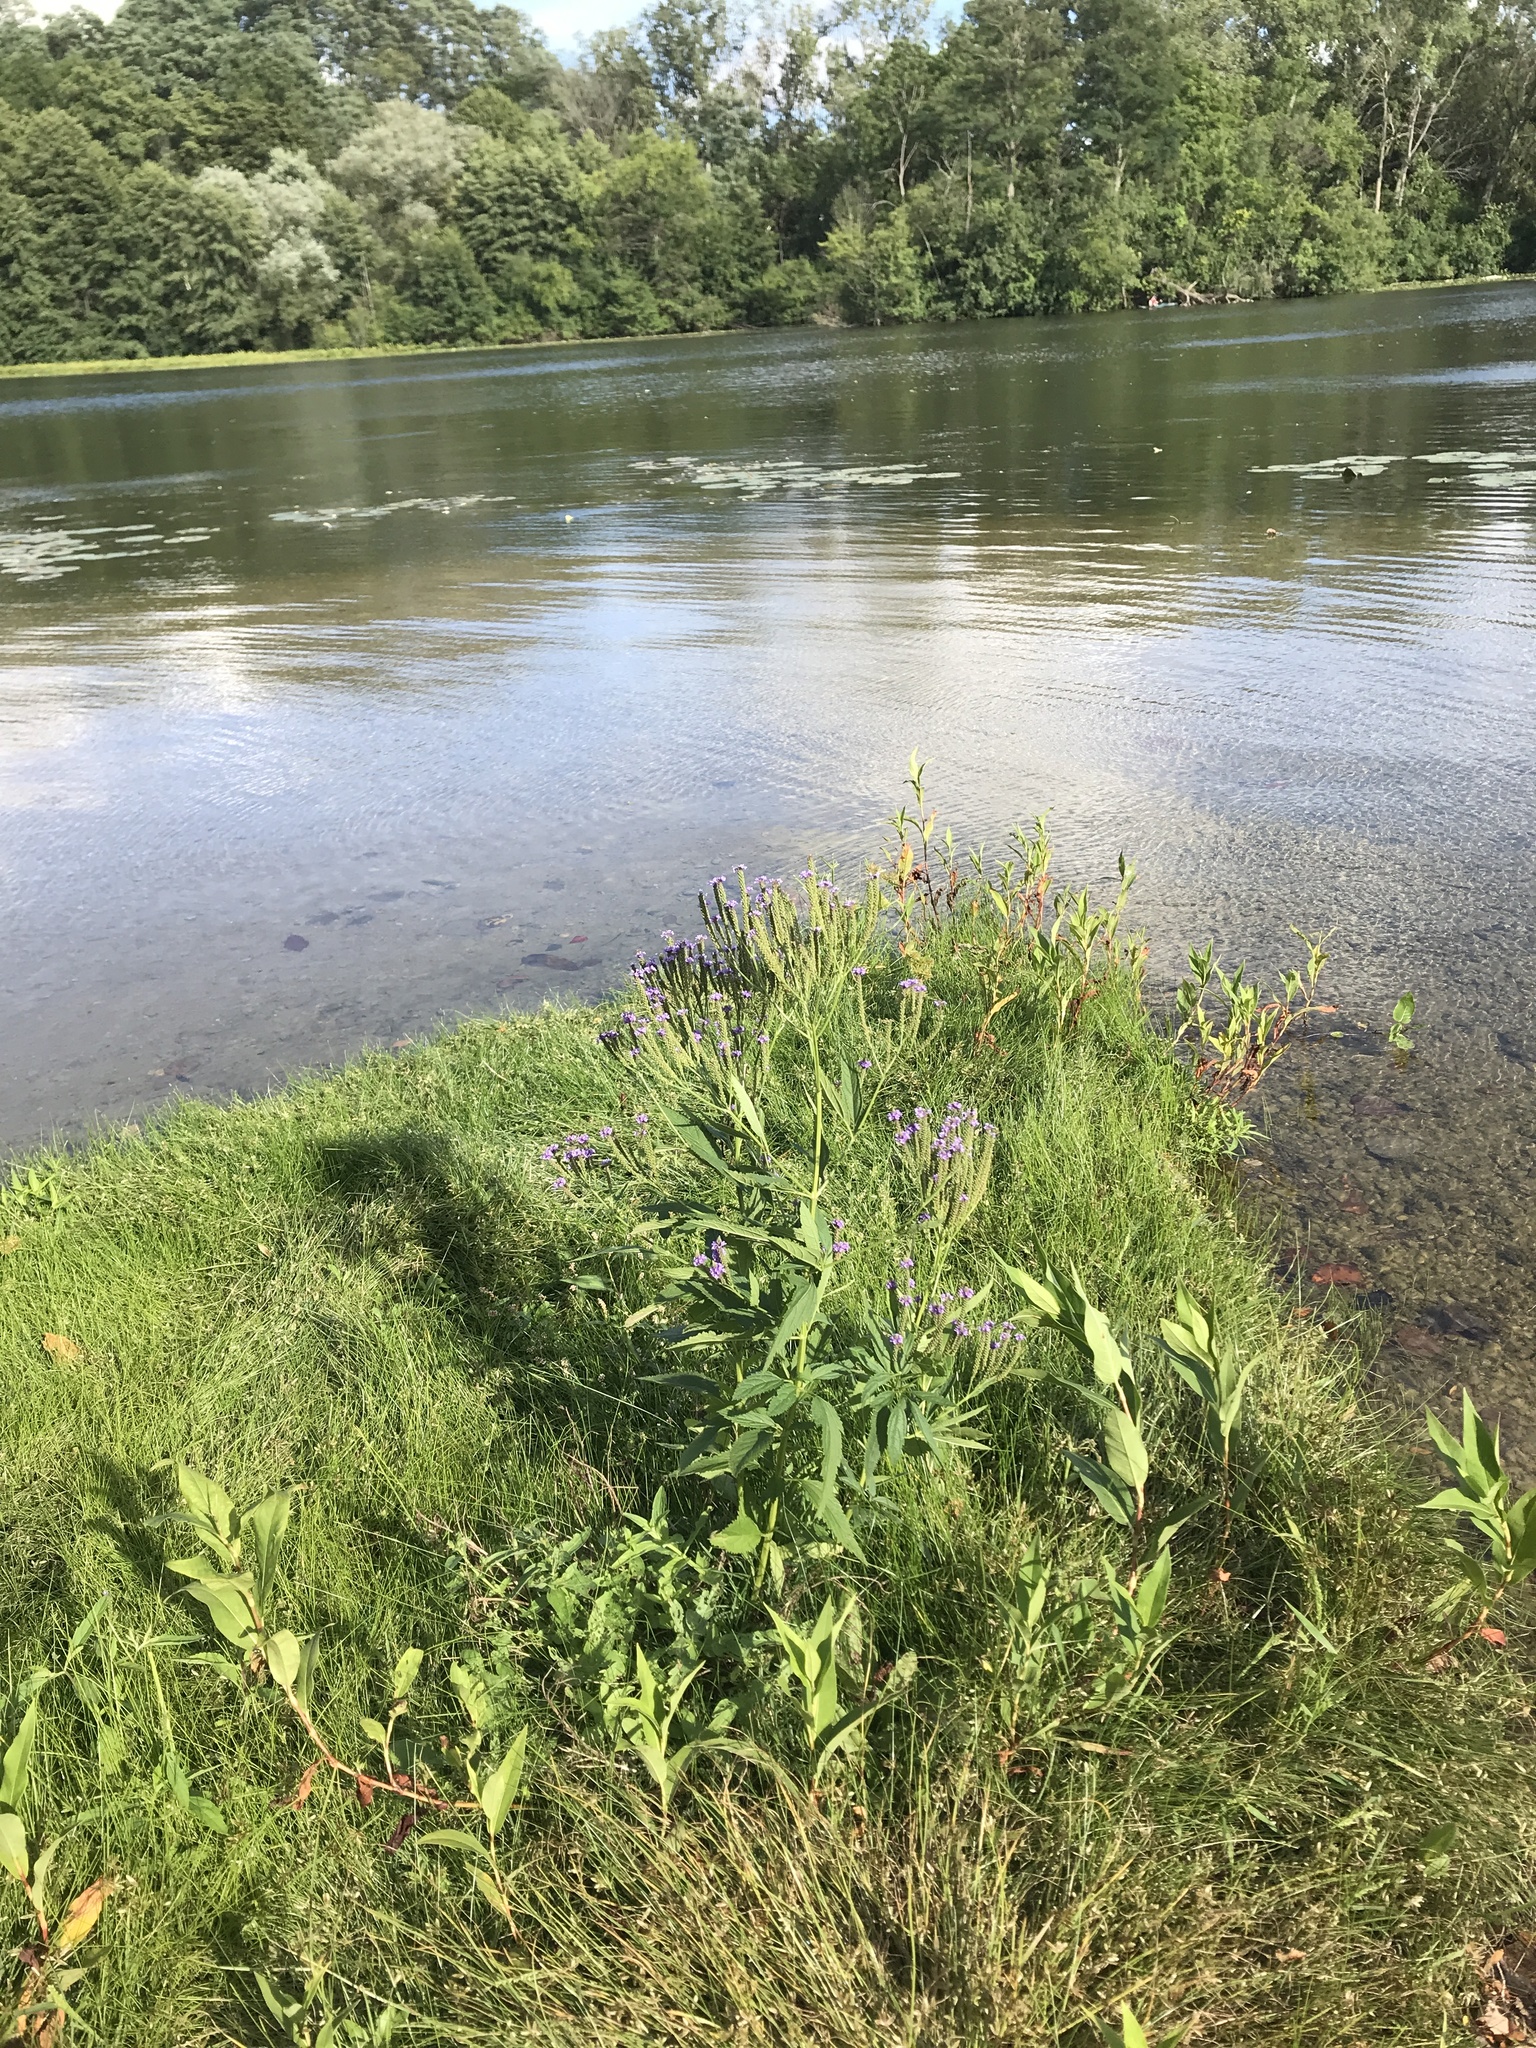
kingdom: Plantae
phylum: Tracheophyta
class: Magnoliopsida
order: Lamiales
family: Verbenaceae
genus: Verbena
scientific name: Verbena hastata
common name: American blue vervain
